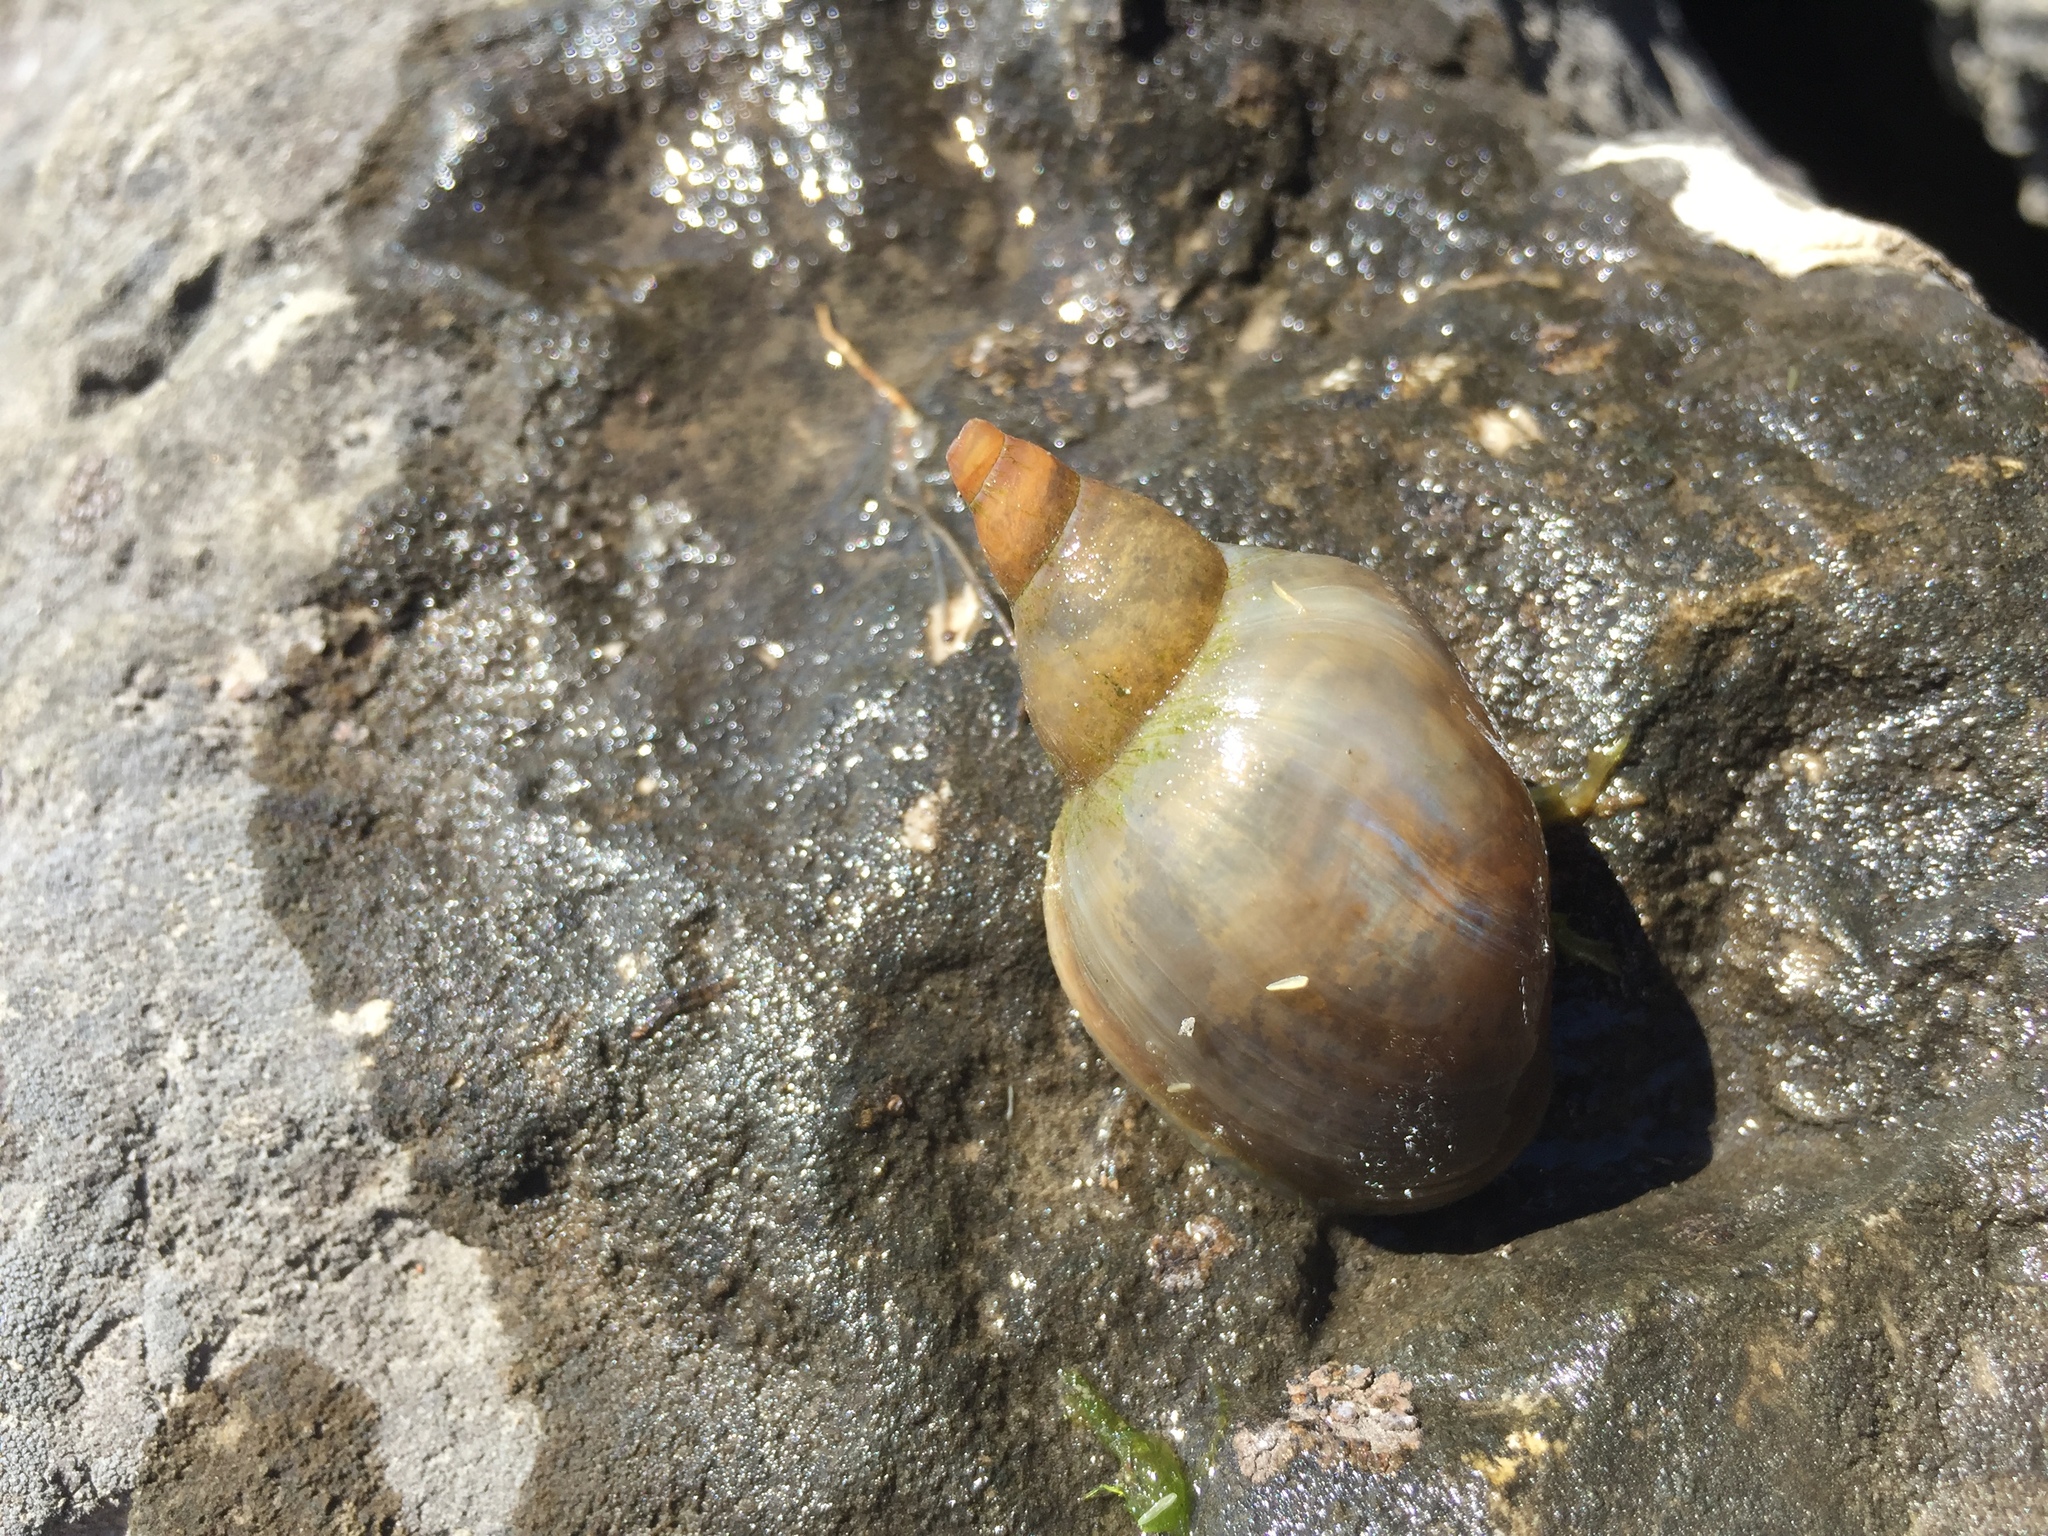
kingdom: Animalia
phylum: Mollusca
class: Gastropoda
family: Lymnaeidae
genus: Lymnaea
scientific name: Lymnaea stagnalis
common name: Great pond snail
